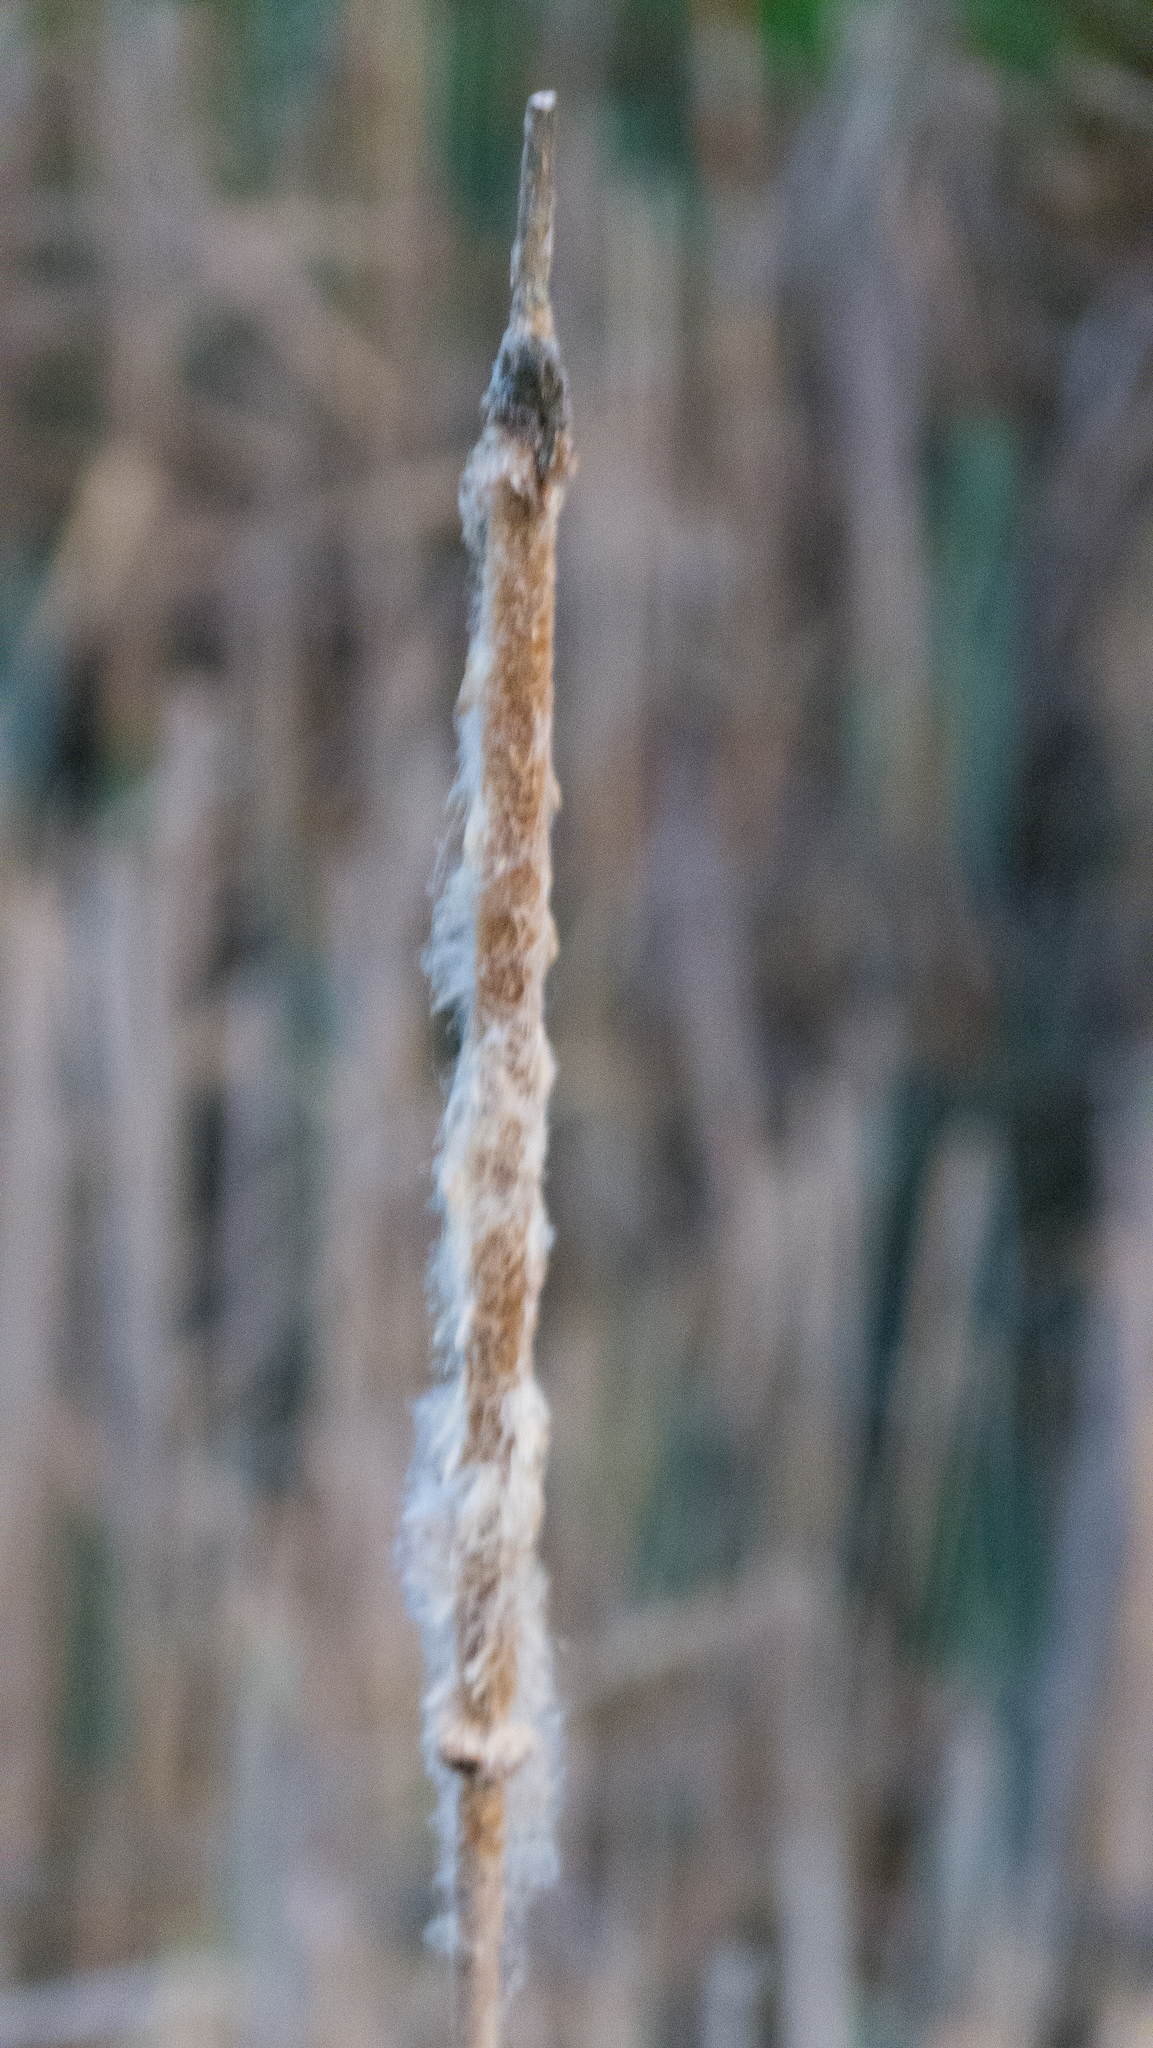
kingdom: Plantae
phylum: Tracheophyta
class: Liliopsida
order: Poales
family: Typhaceae
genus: Typha
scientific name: Typha latifolia
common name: Broadleaf cattail
